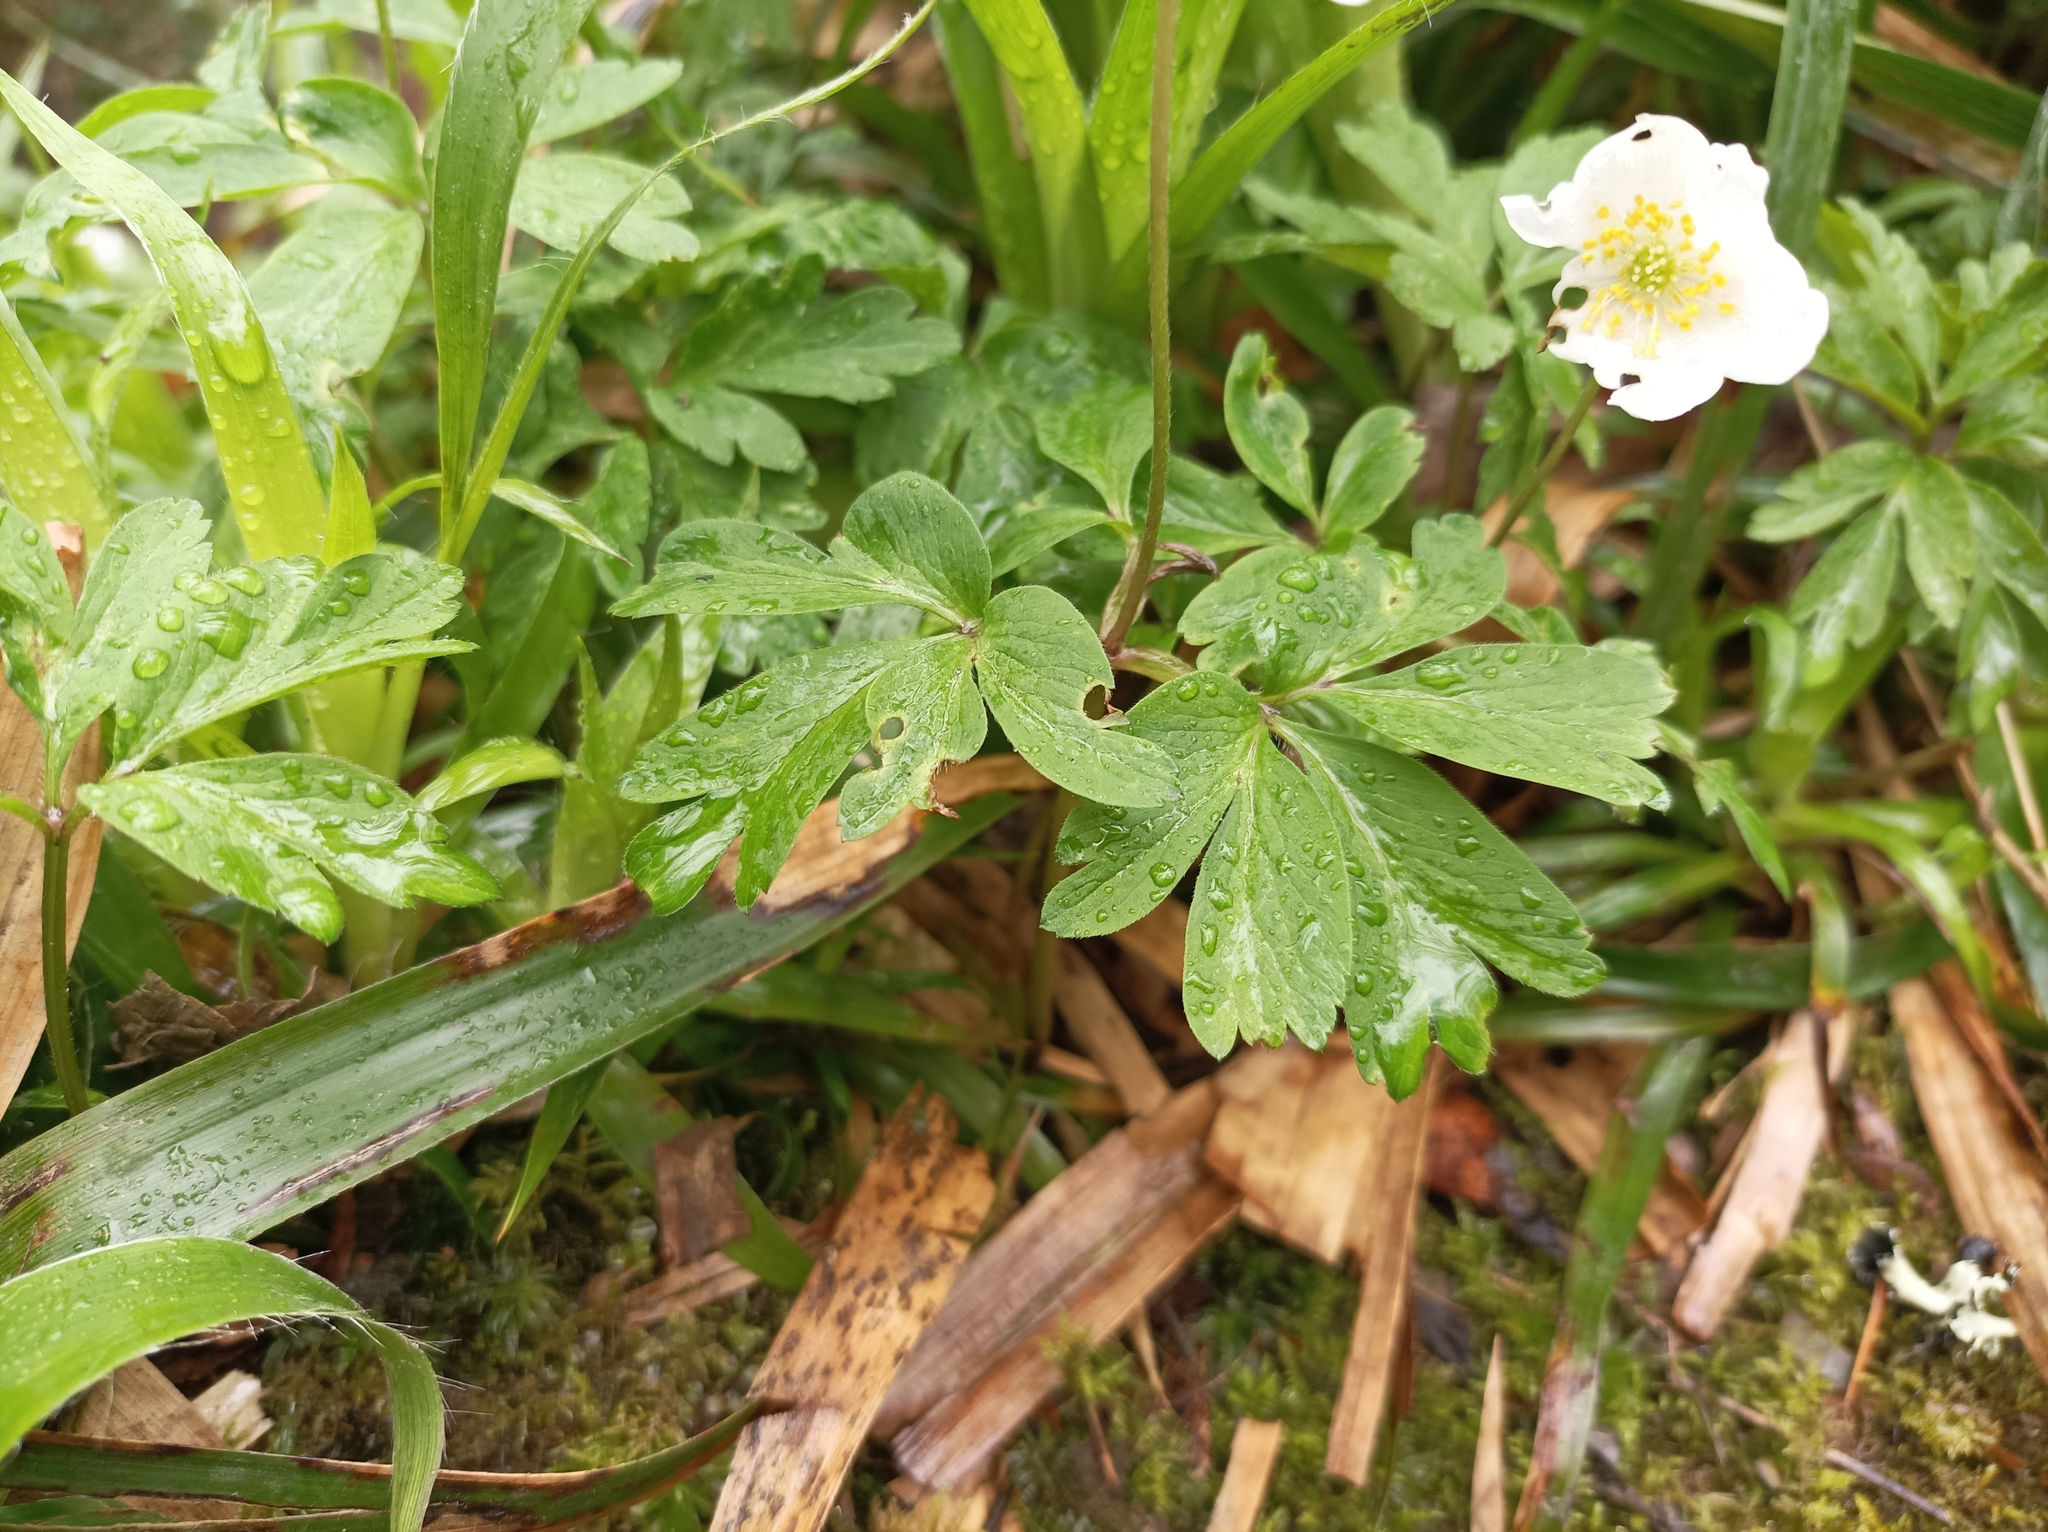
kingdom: Plantae
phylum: Tracheophyta
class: Magnoliopsida
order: Ranunculales
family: Ranunculaceae
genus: Anemone
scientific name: Anemone nemorosa
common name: Wood anemone
